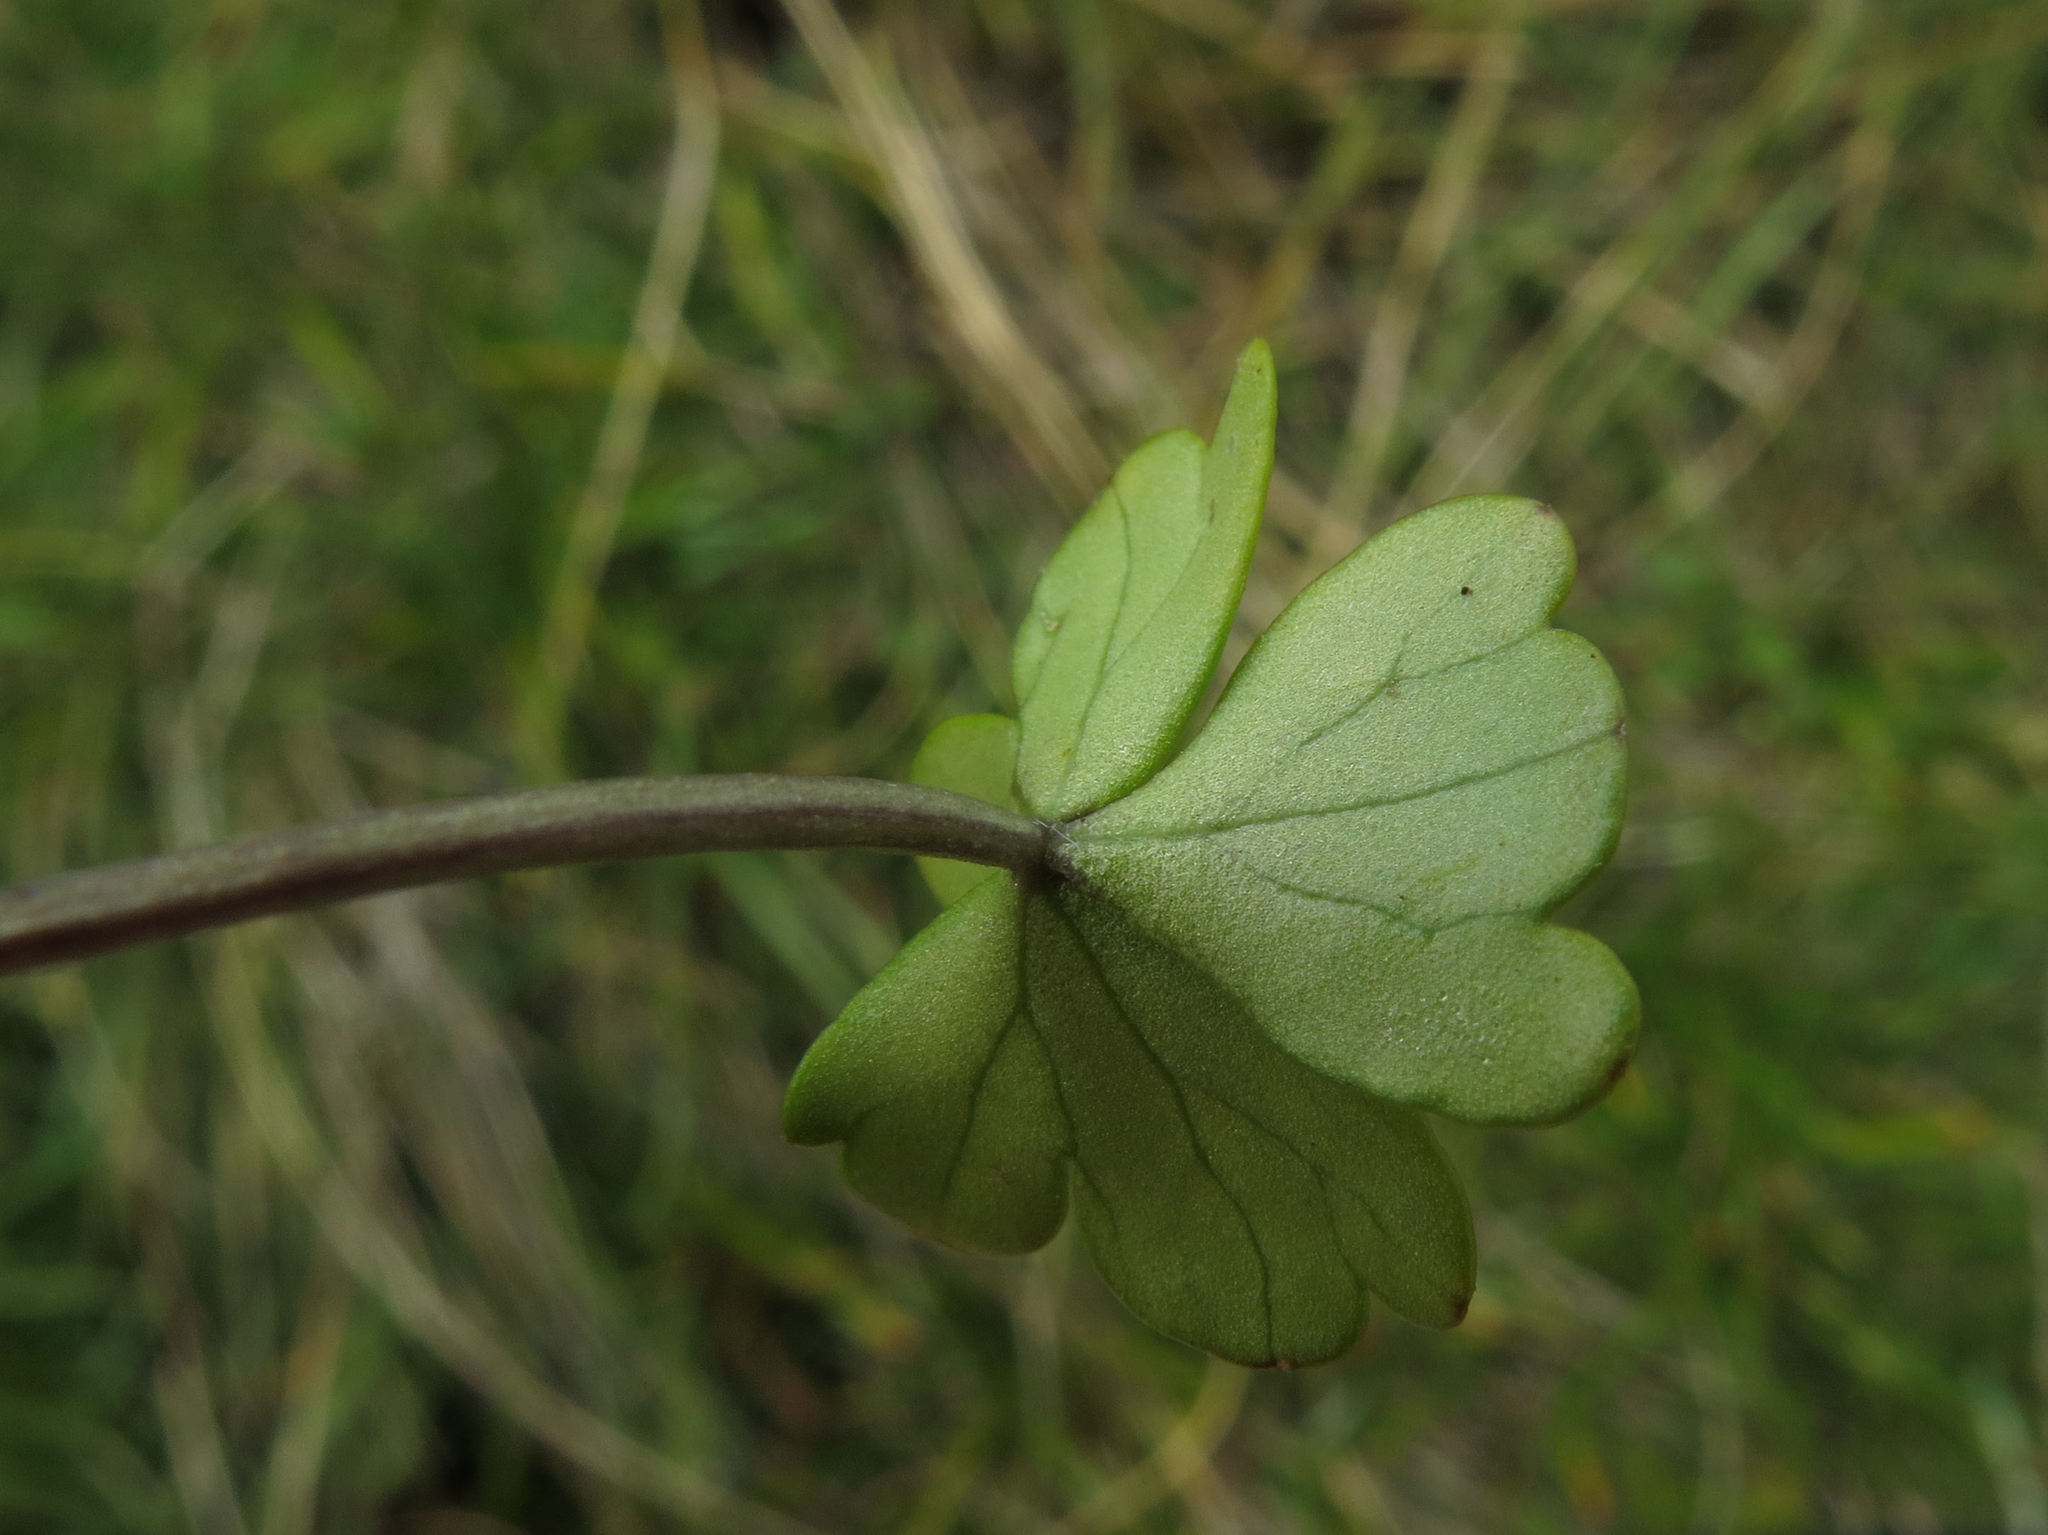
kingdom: Plantae
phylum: Tracheophyta
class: Magnoliopsida
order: Apiales
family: Apiaceae
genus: Azorella
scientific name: Azorella pallida
